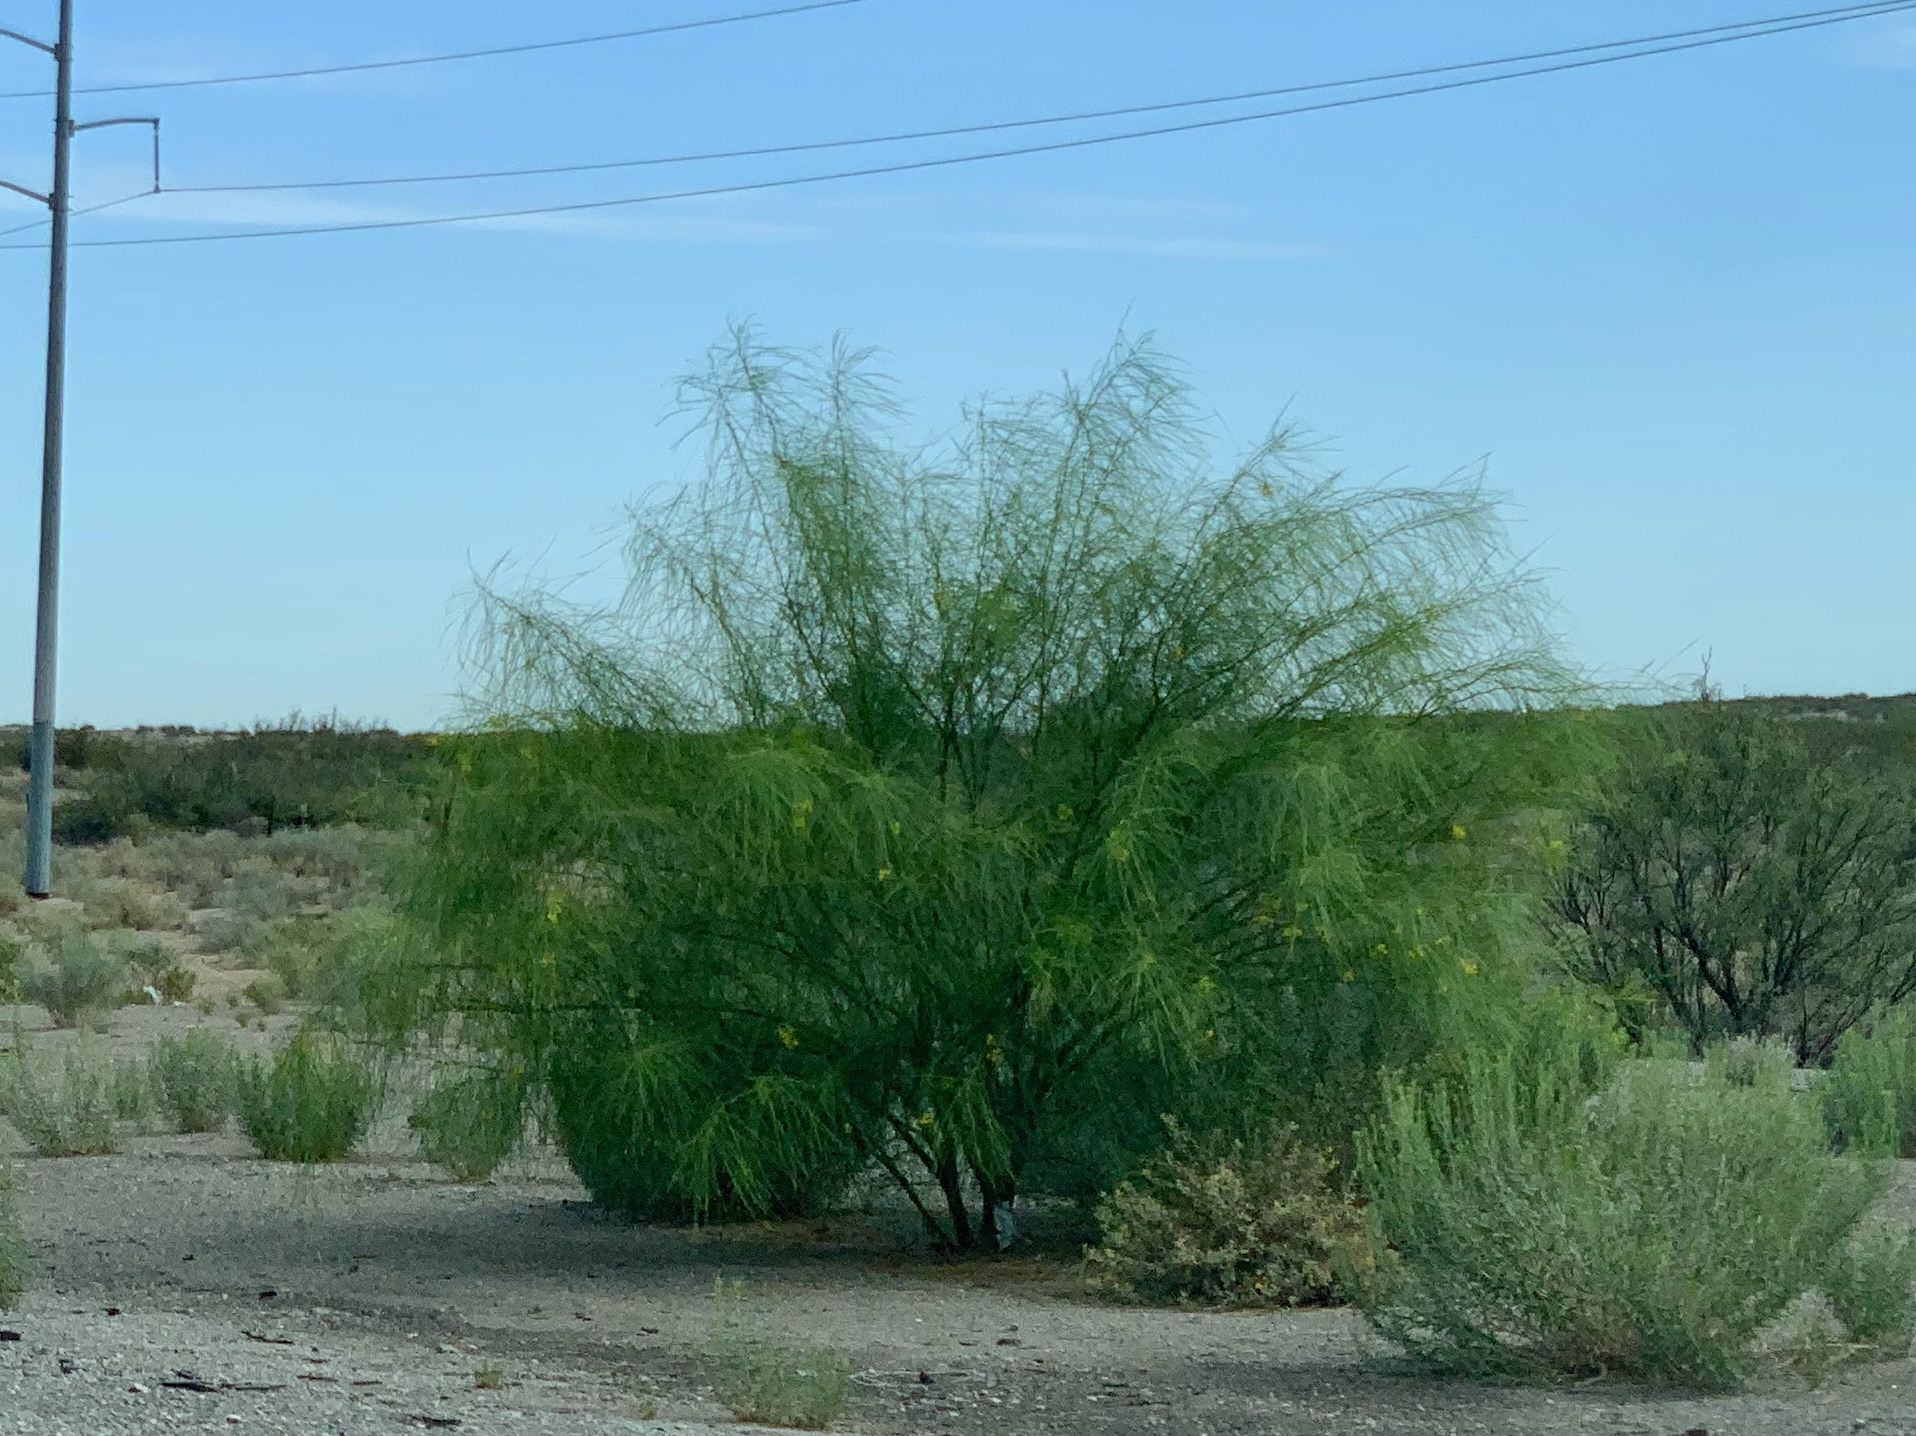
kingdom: Plantae
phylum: Tracheophyta
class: Magnoliopsida
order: Fabales
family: Fabaceae
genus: Parkinsonia
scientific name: Parkinsonia aculeata
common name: Jerusalem thorn
